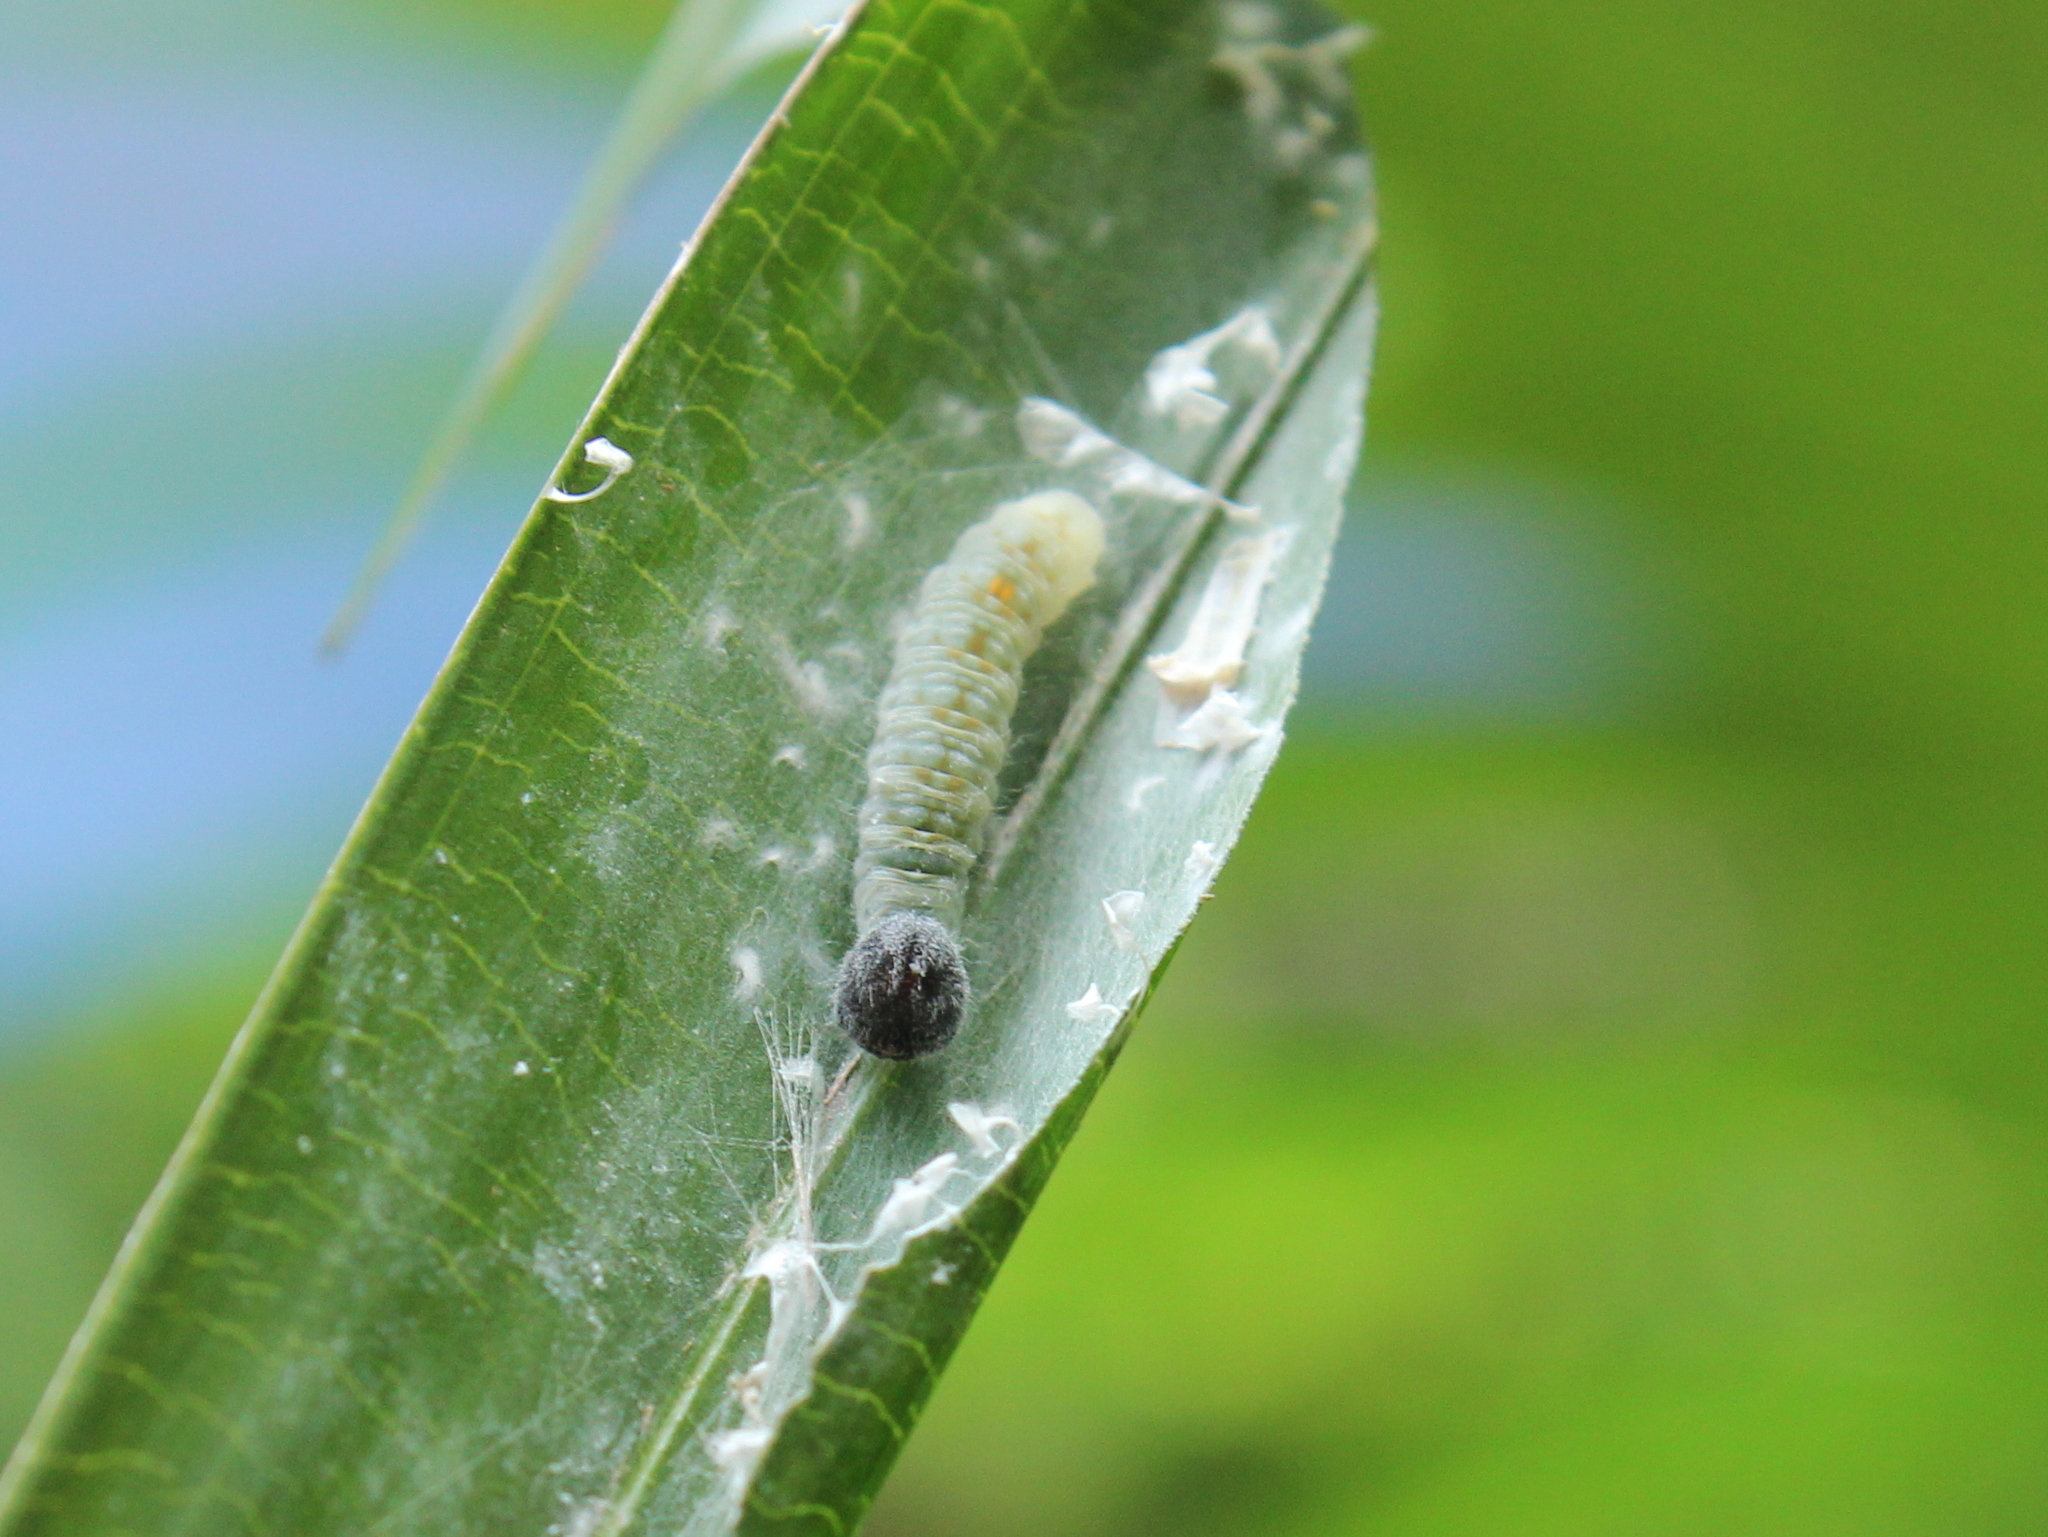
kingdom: Animalia
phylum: Arthropoda
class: Insecta
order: Lepidoptera
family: Hesperiidae
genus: Gangara
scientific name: Gangara thyrsis
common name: Giant redeye
